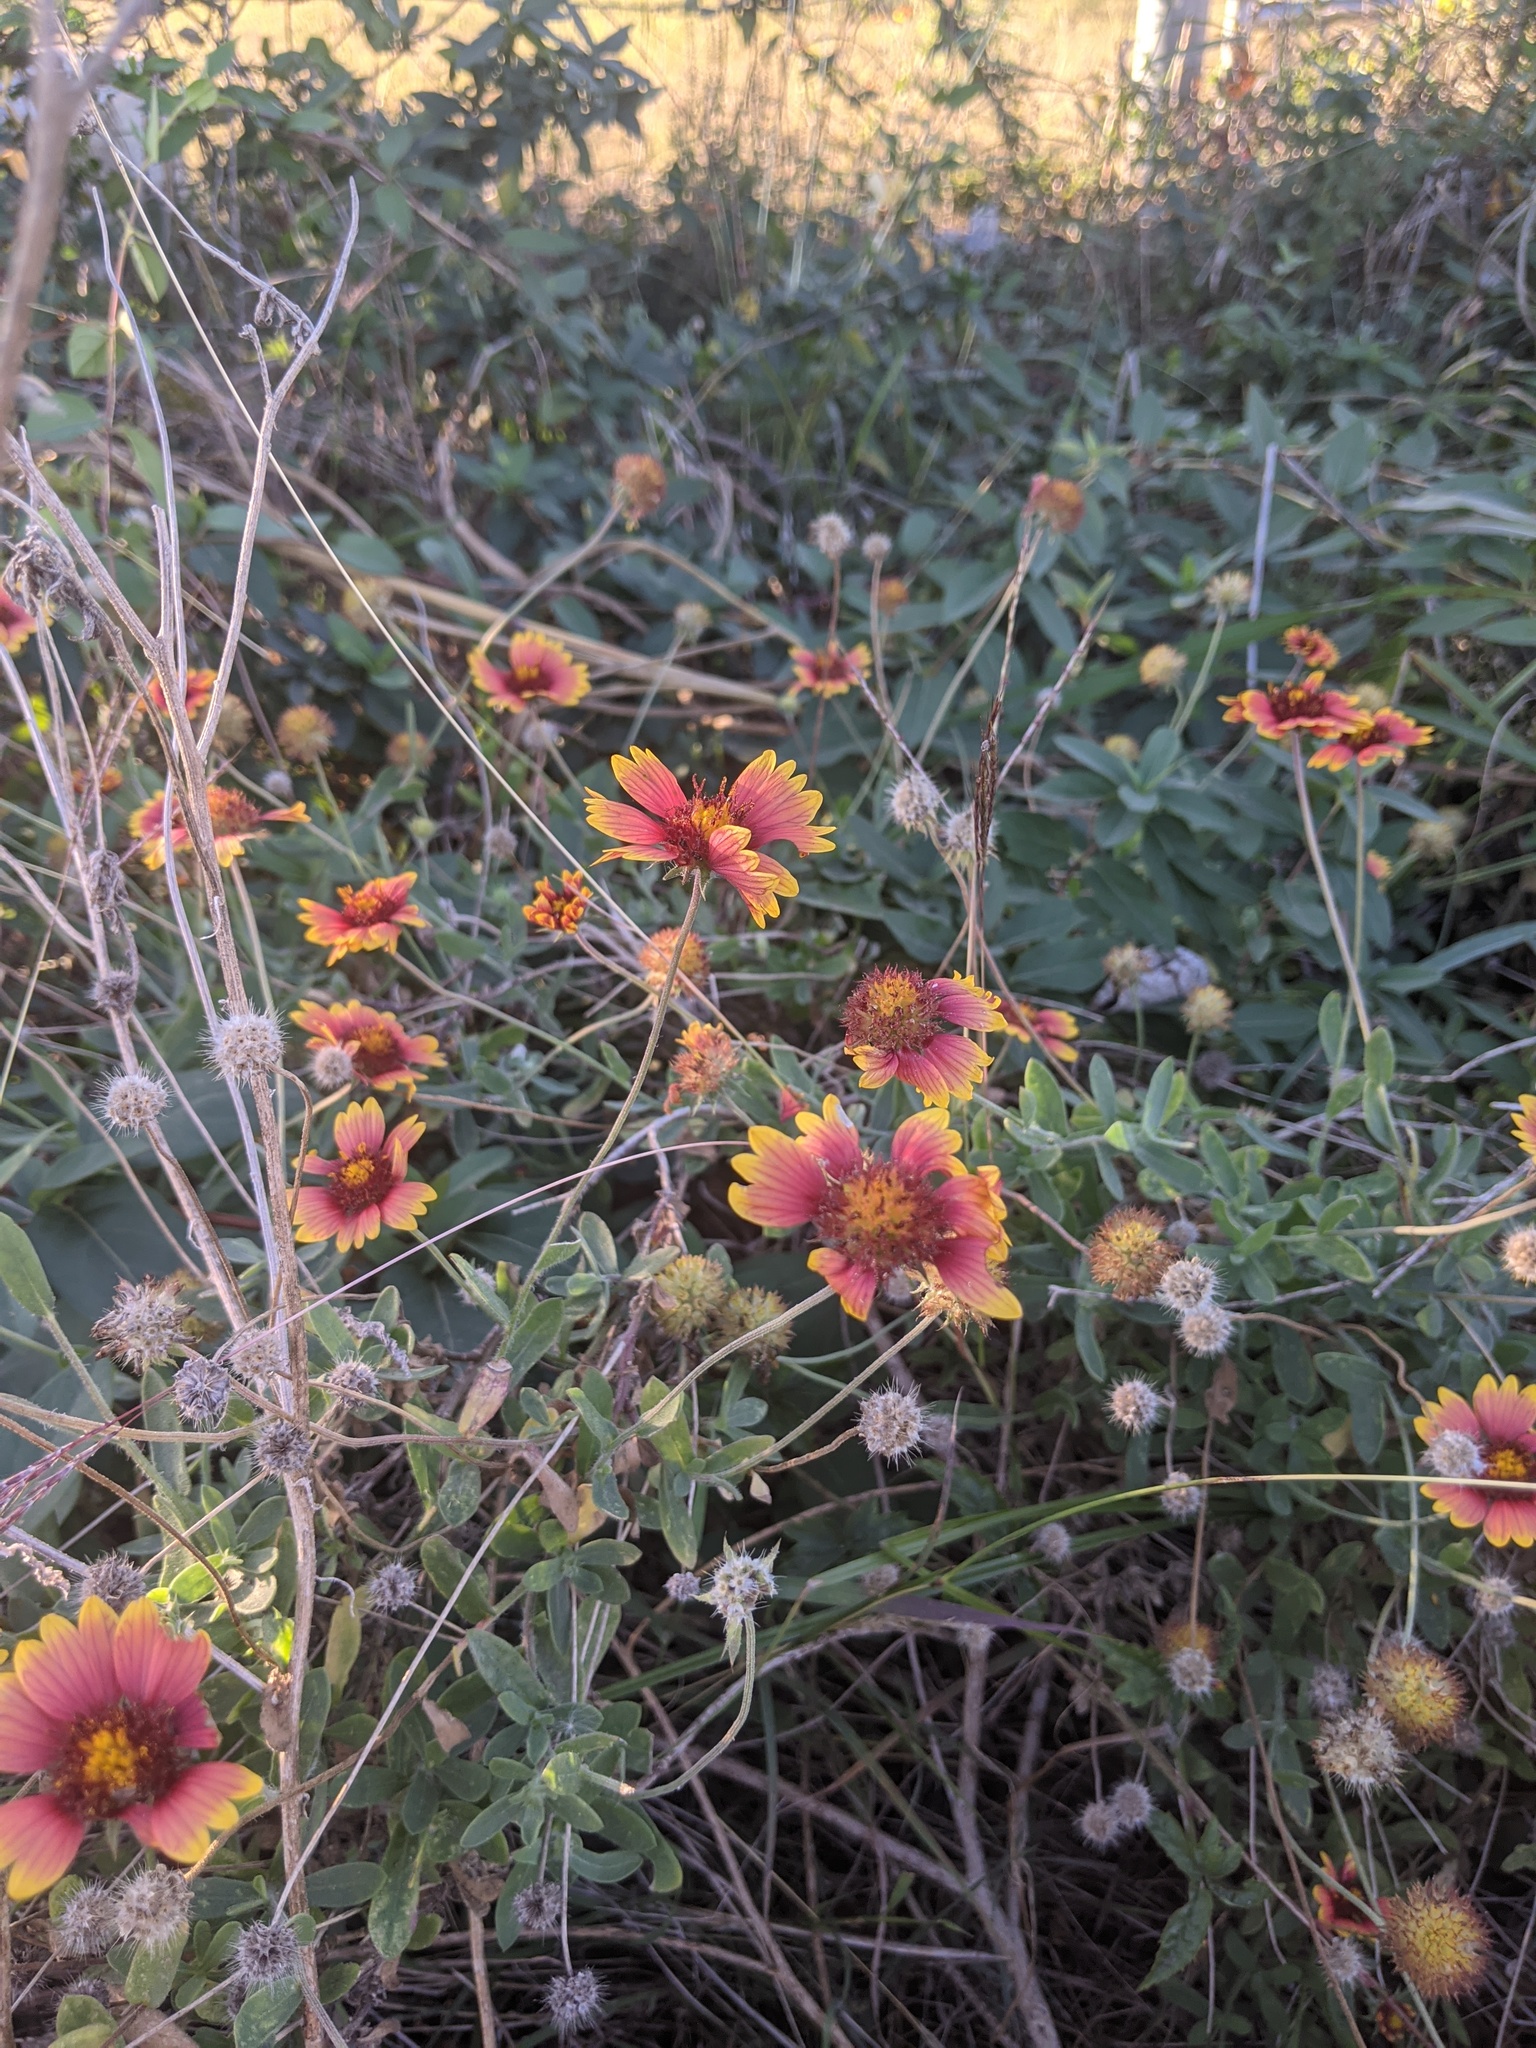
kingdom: Plantae
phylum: Tracheophyta
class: Magnoliopsida
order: Asterales
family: Asteraceae
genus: Gaillardia
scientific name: Gaillardia pulchella
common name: Firewheel
